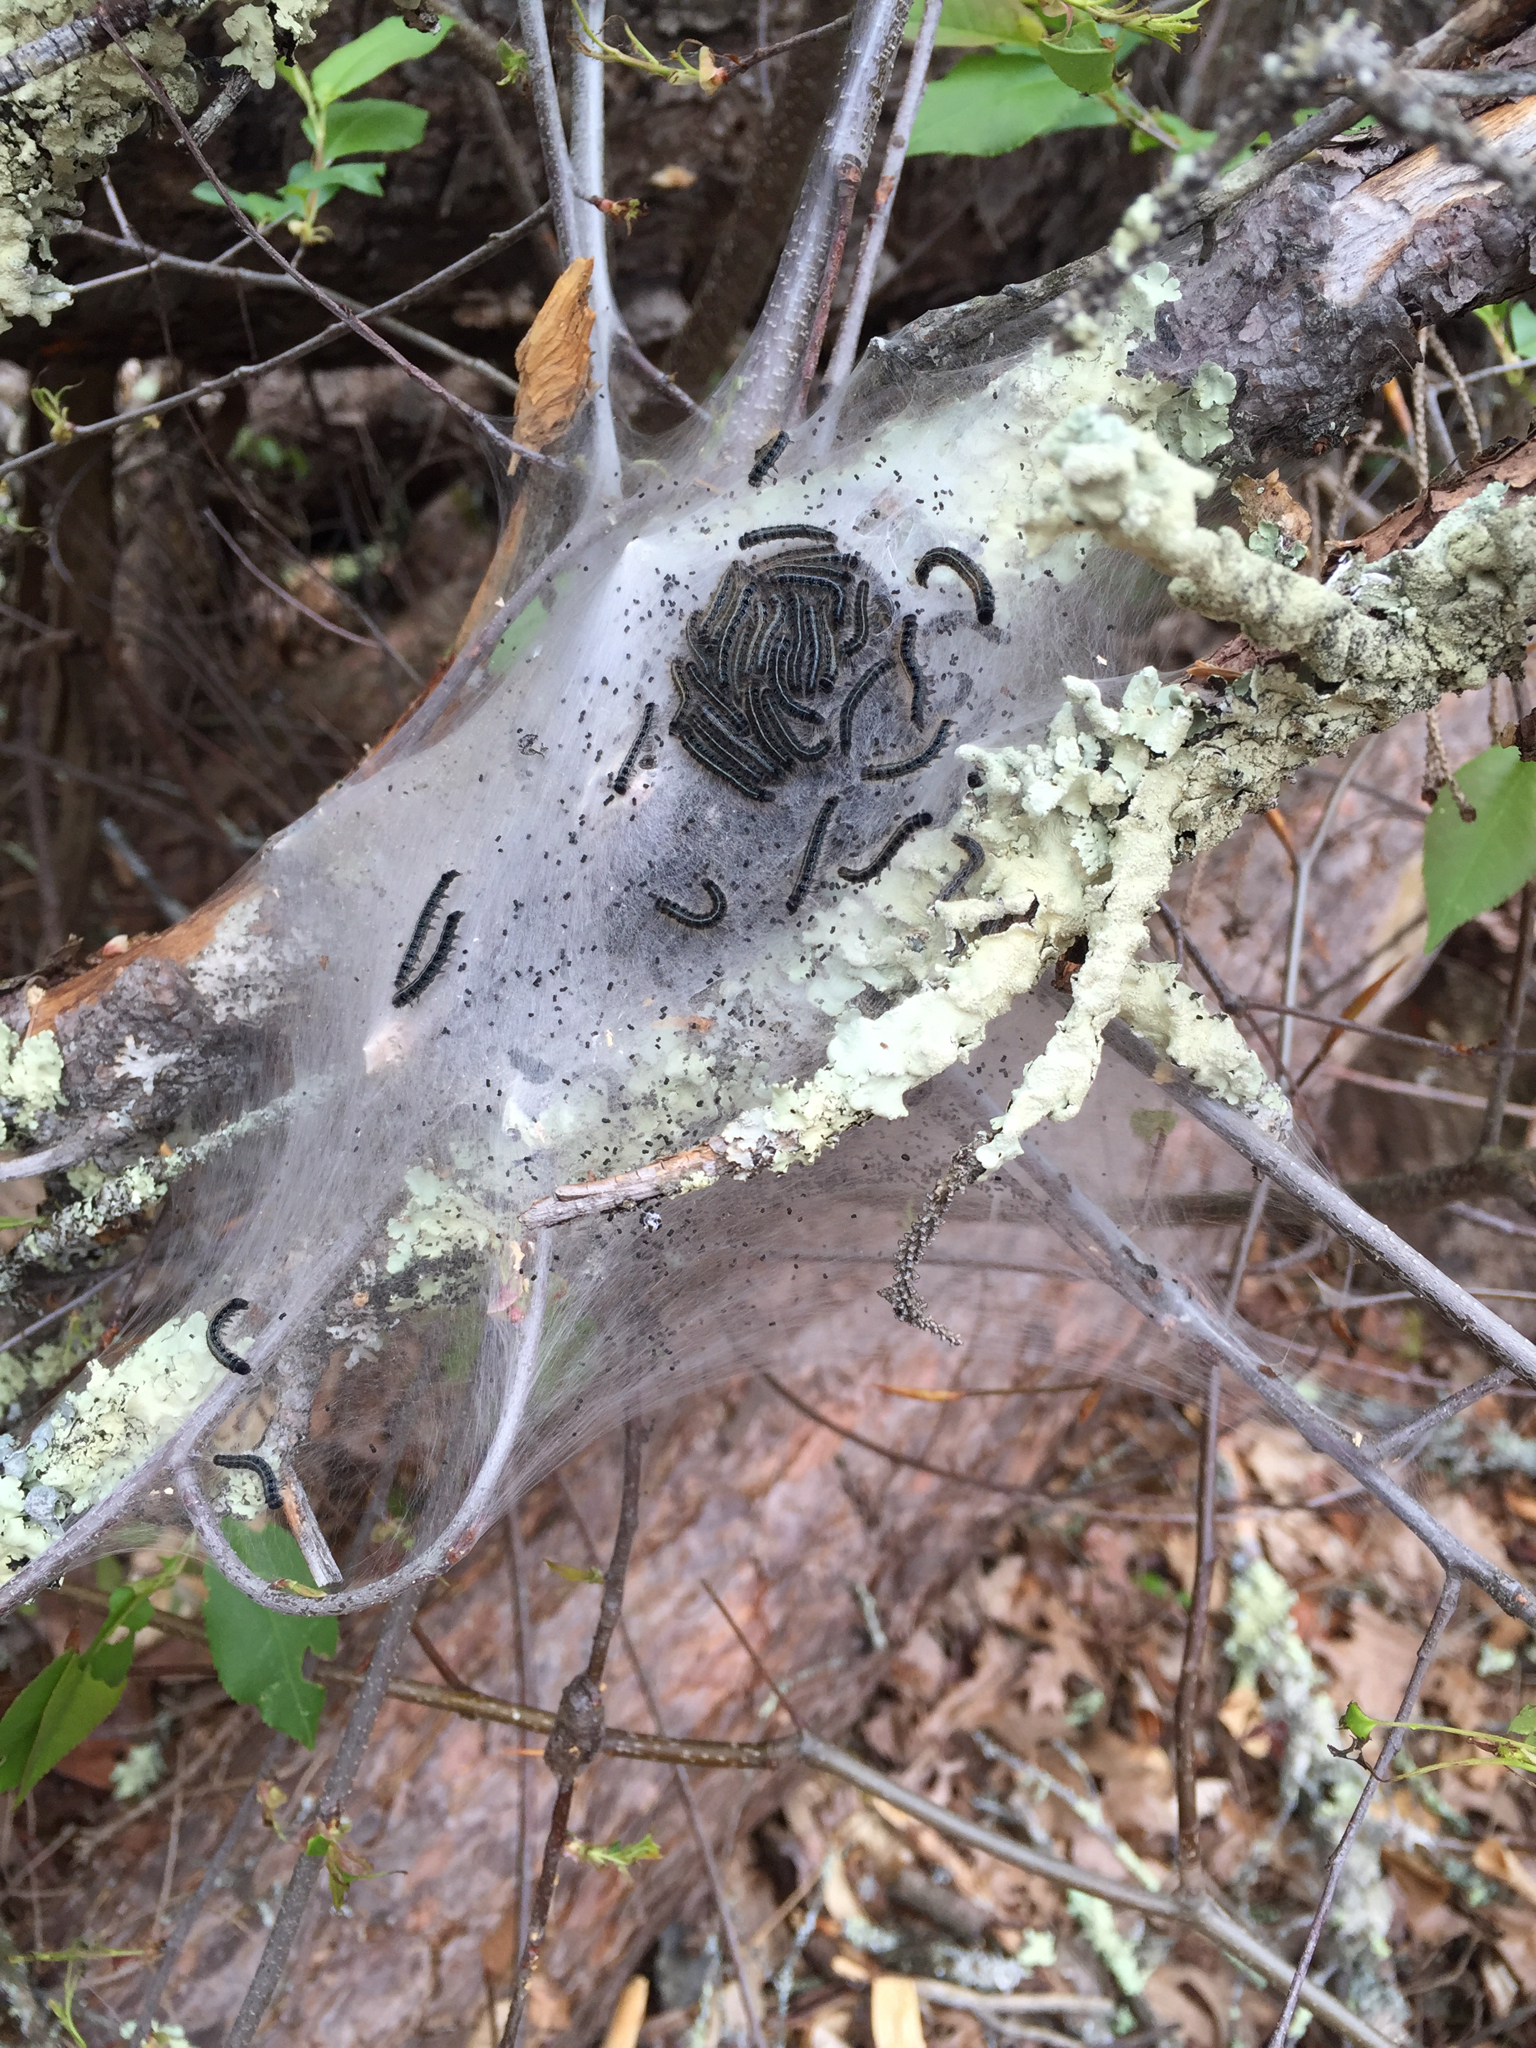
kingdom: Animalia
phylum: Arthropoda
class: Insecta
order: Lepidoptera
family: Lasiocampidae
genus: Malacosoma
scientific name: Malacosoma americana
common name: Eastern tent caterpillar moth
